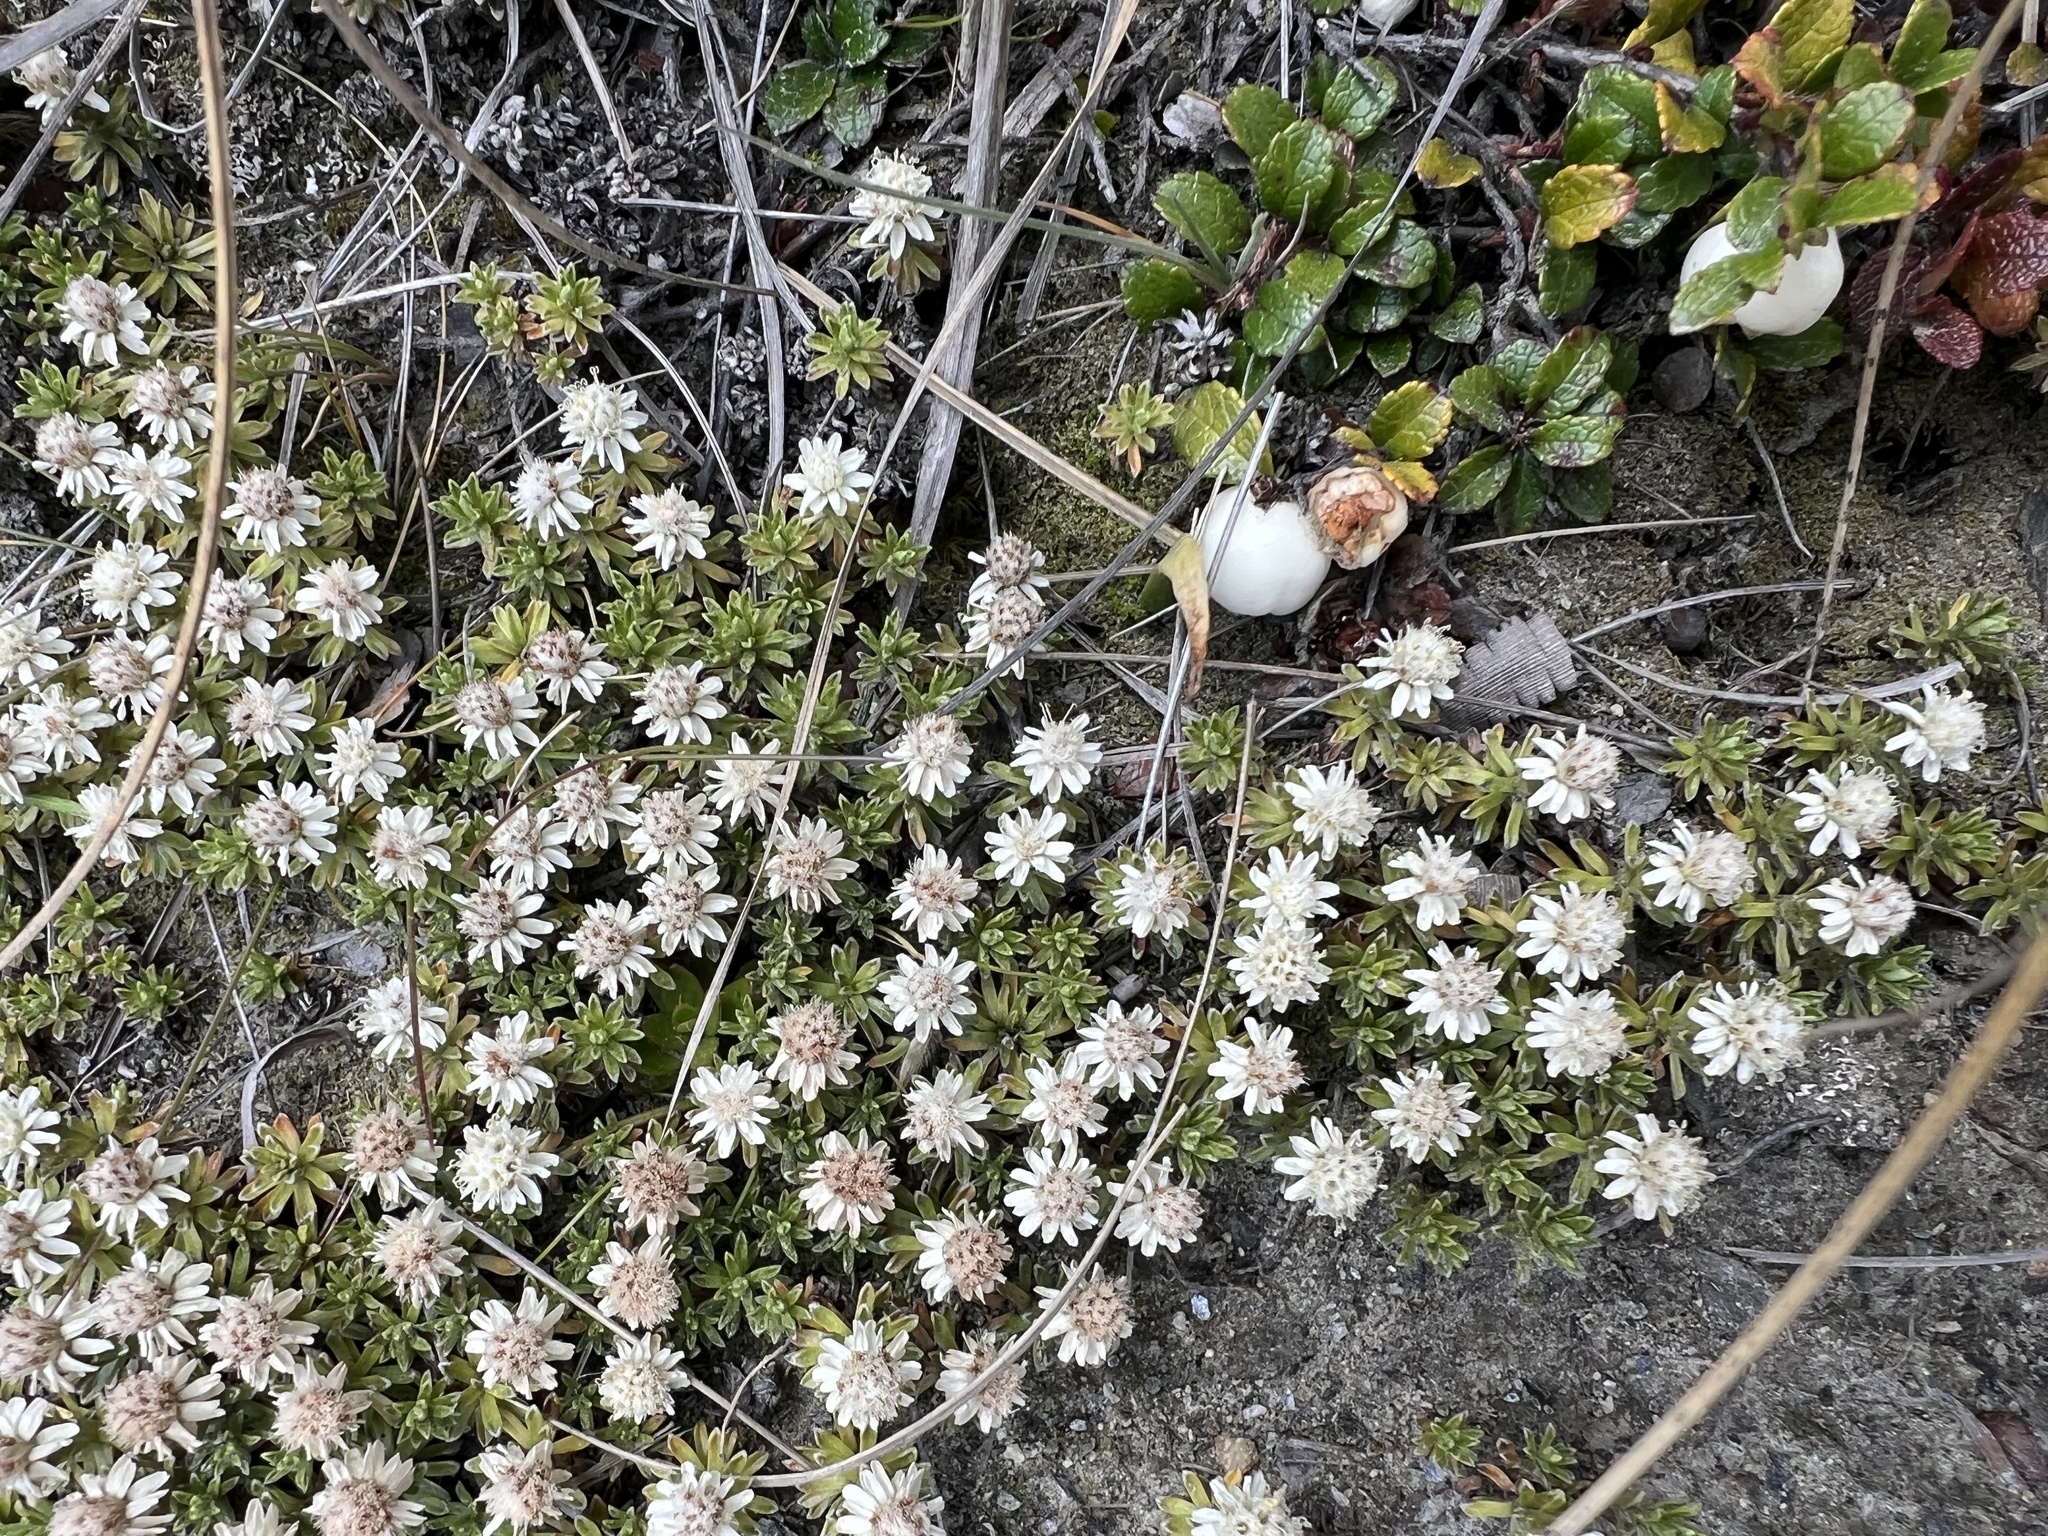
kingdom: Plantae
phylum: Tracheophyta
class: Magnoliopsida
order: Asterales
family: Asteraceae
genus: Raoulia
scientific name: Raoulia subsericea
